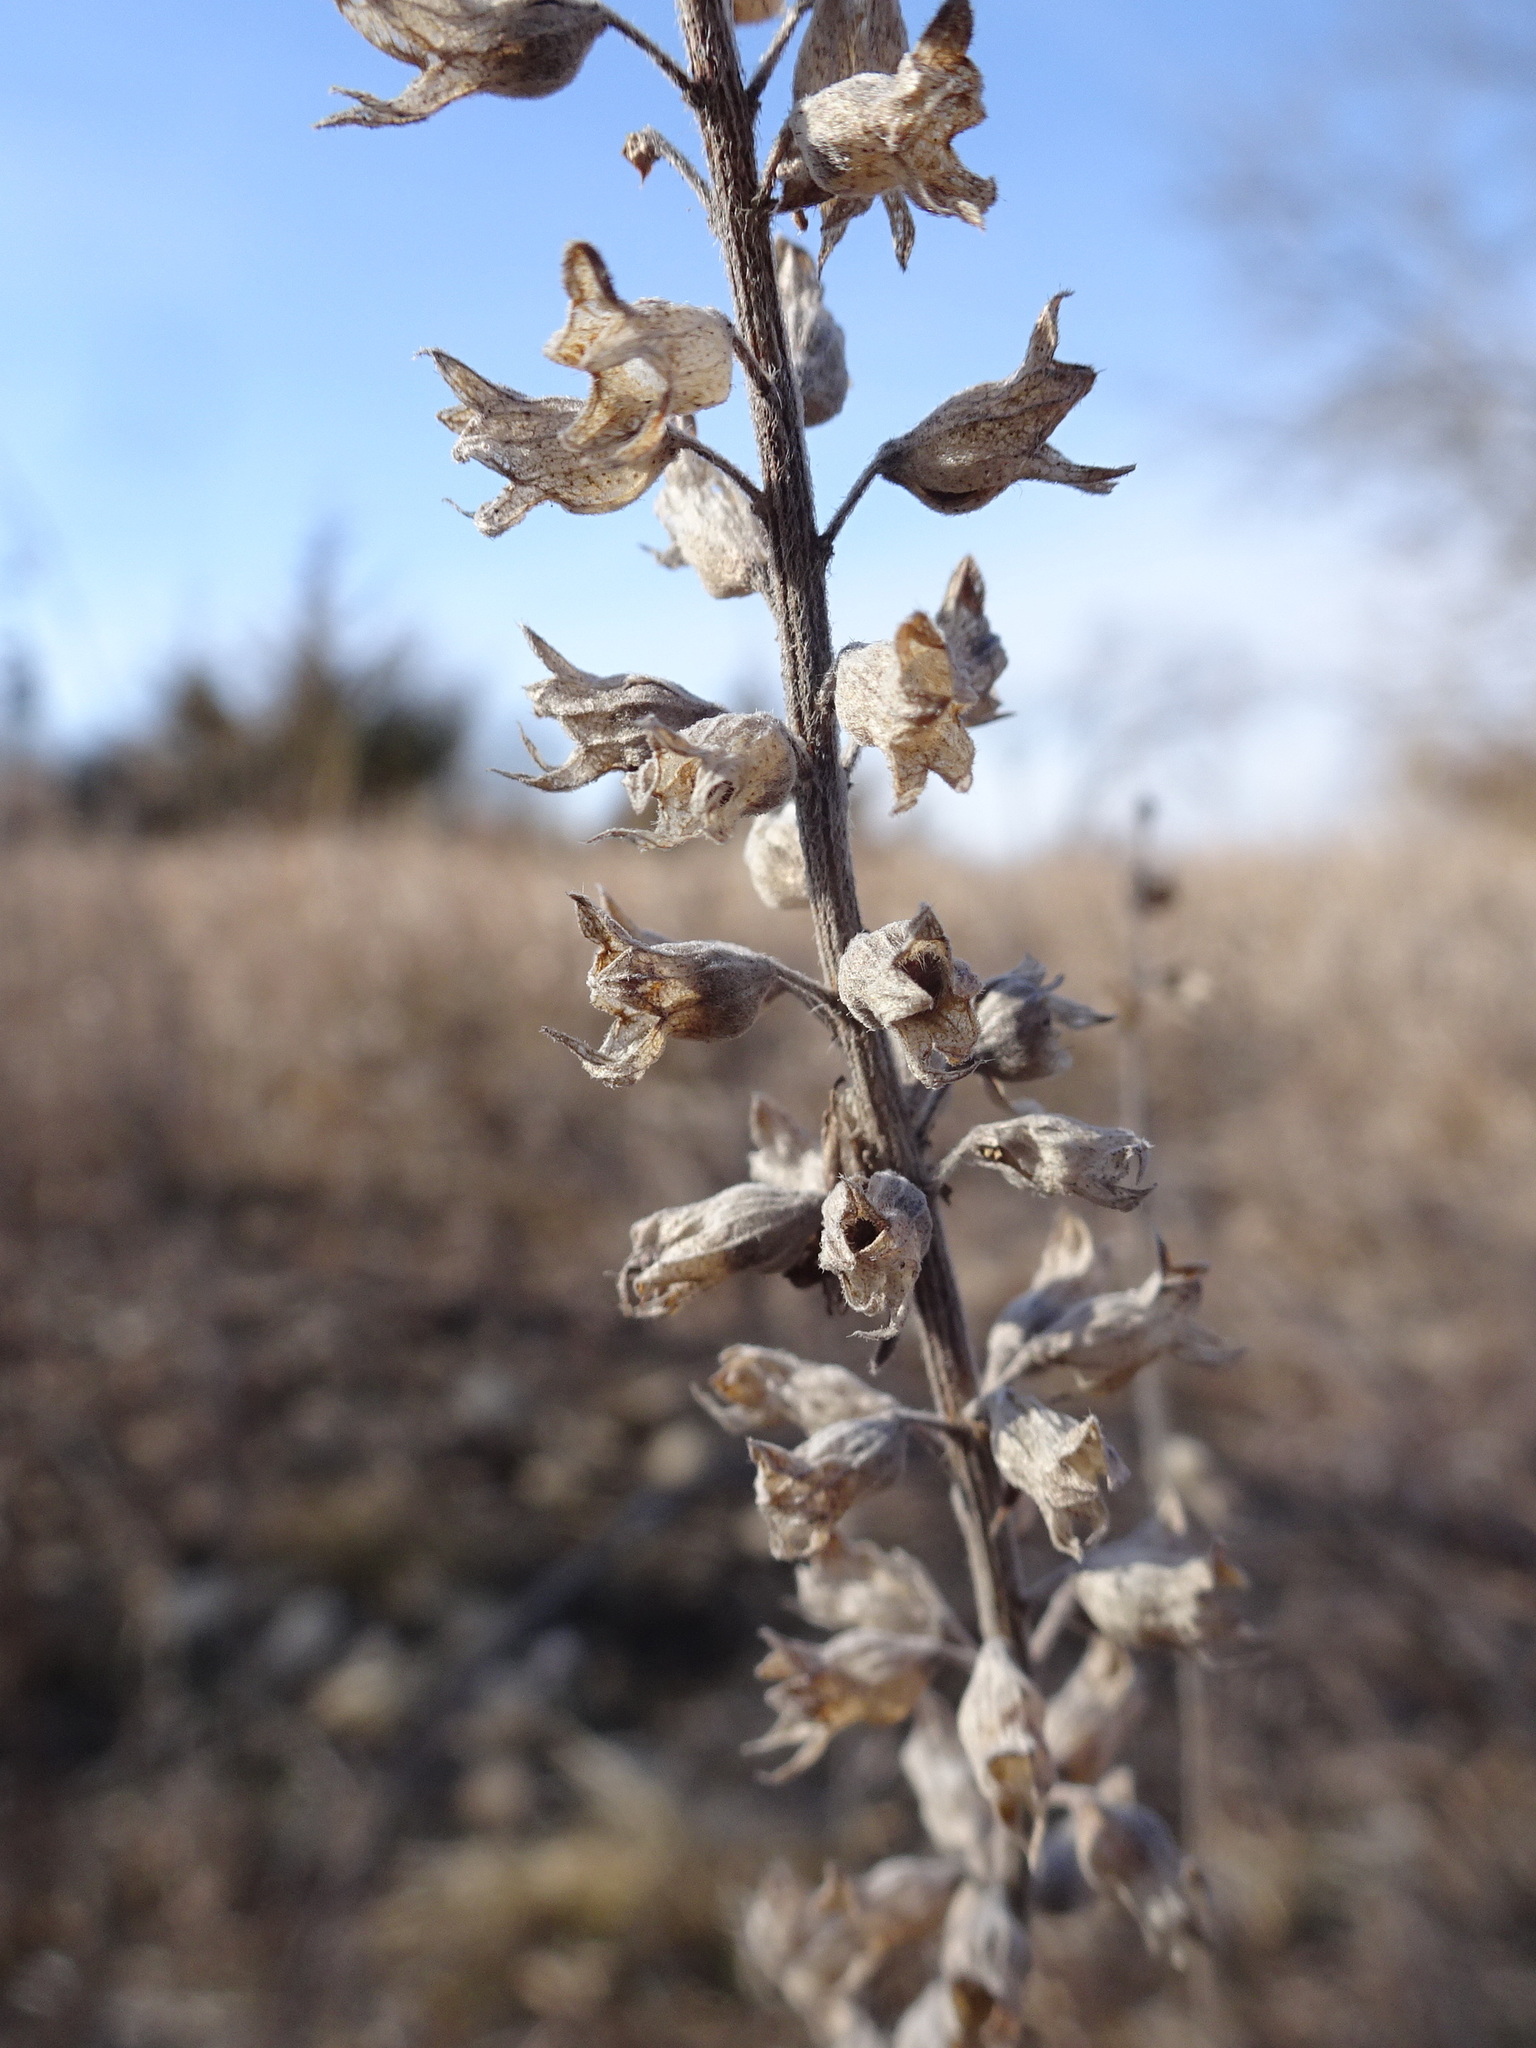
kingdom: Plantae
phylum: Tracheophyta
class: Magnoliopsida
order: Lamiales
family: Lamiaceae
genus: Teucrium
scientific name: Teucrium canadense
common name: American germander
